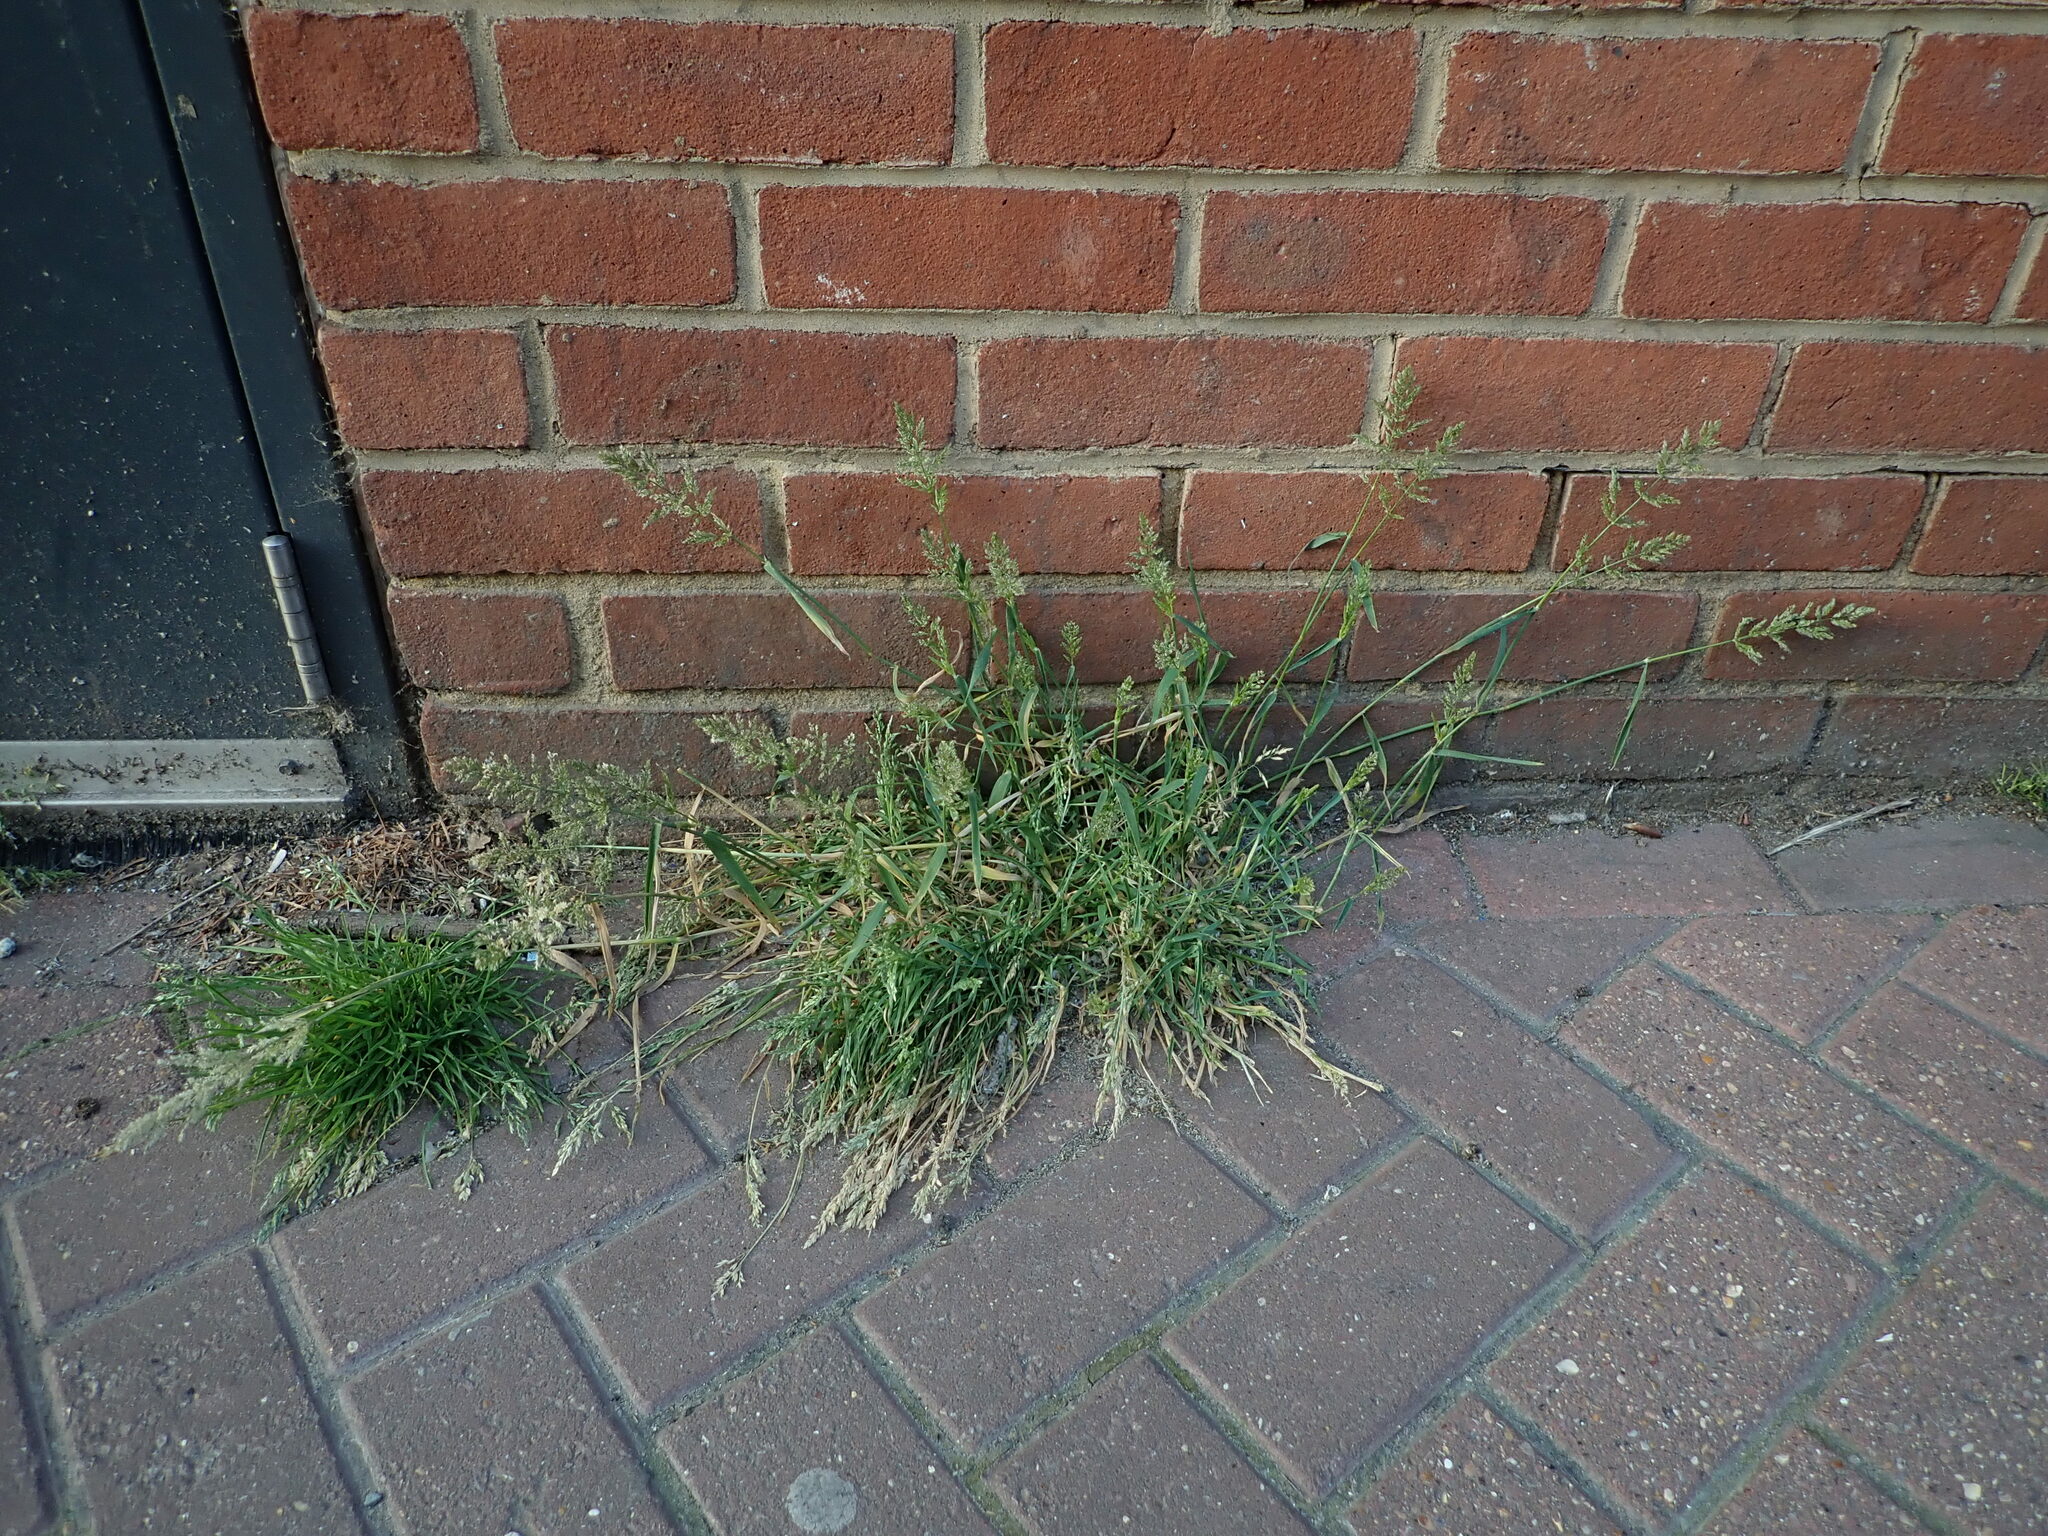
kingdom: Plantae
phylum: Tracheophyta
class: Liliopsida
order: Poales
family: Poaceae
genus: Polypogon
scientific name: Polypogon viridis
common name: Water bent
